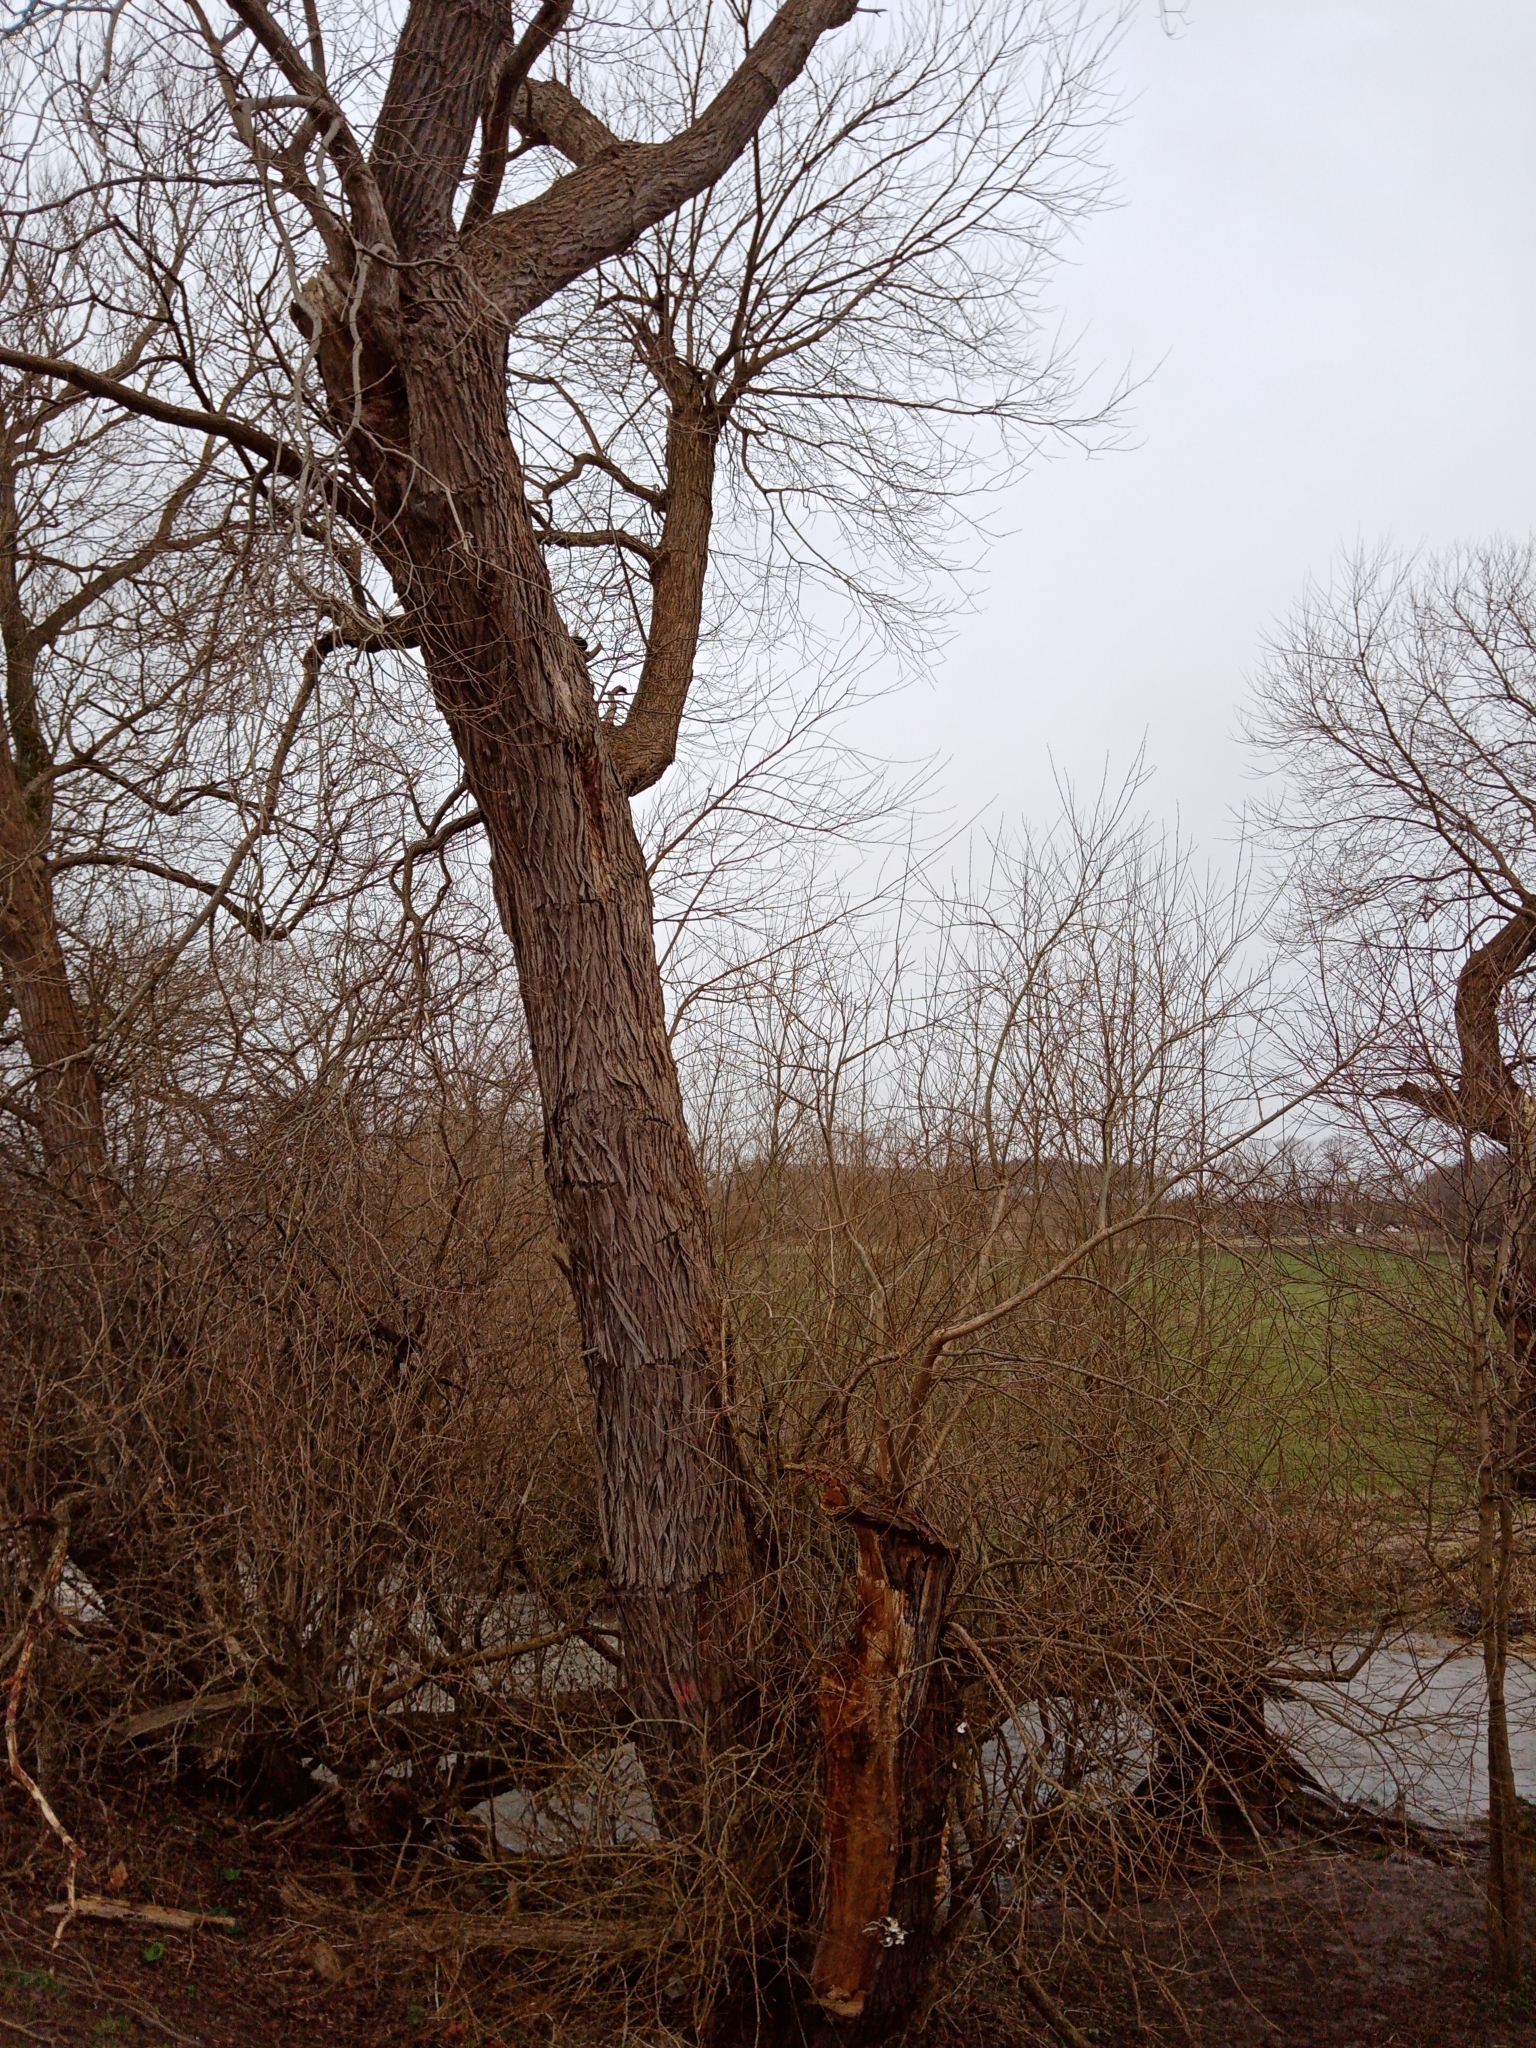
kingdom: Plantae
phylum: Tracheophyta
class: Magnoliopsida
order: Malpighiales
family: Salicaceae
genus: Salix
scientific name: Salix fragilis
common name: Crack willow
